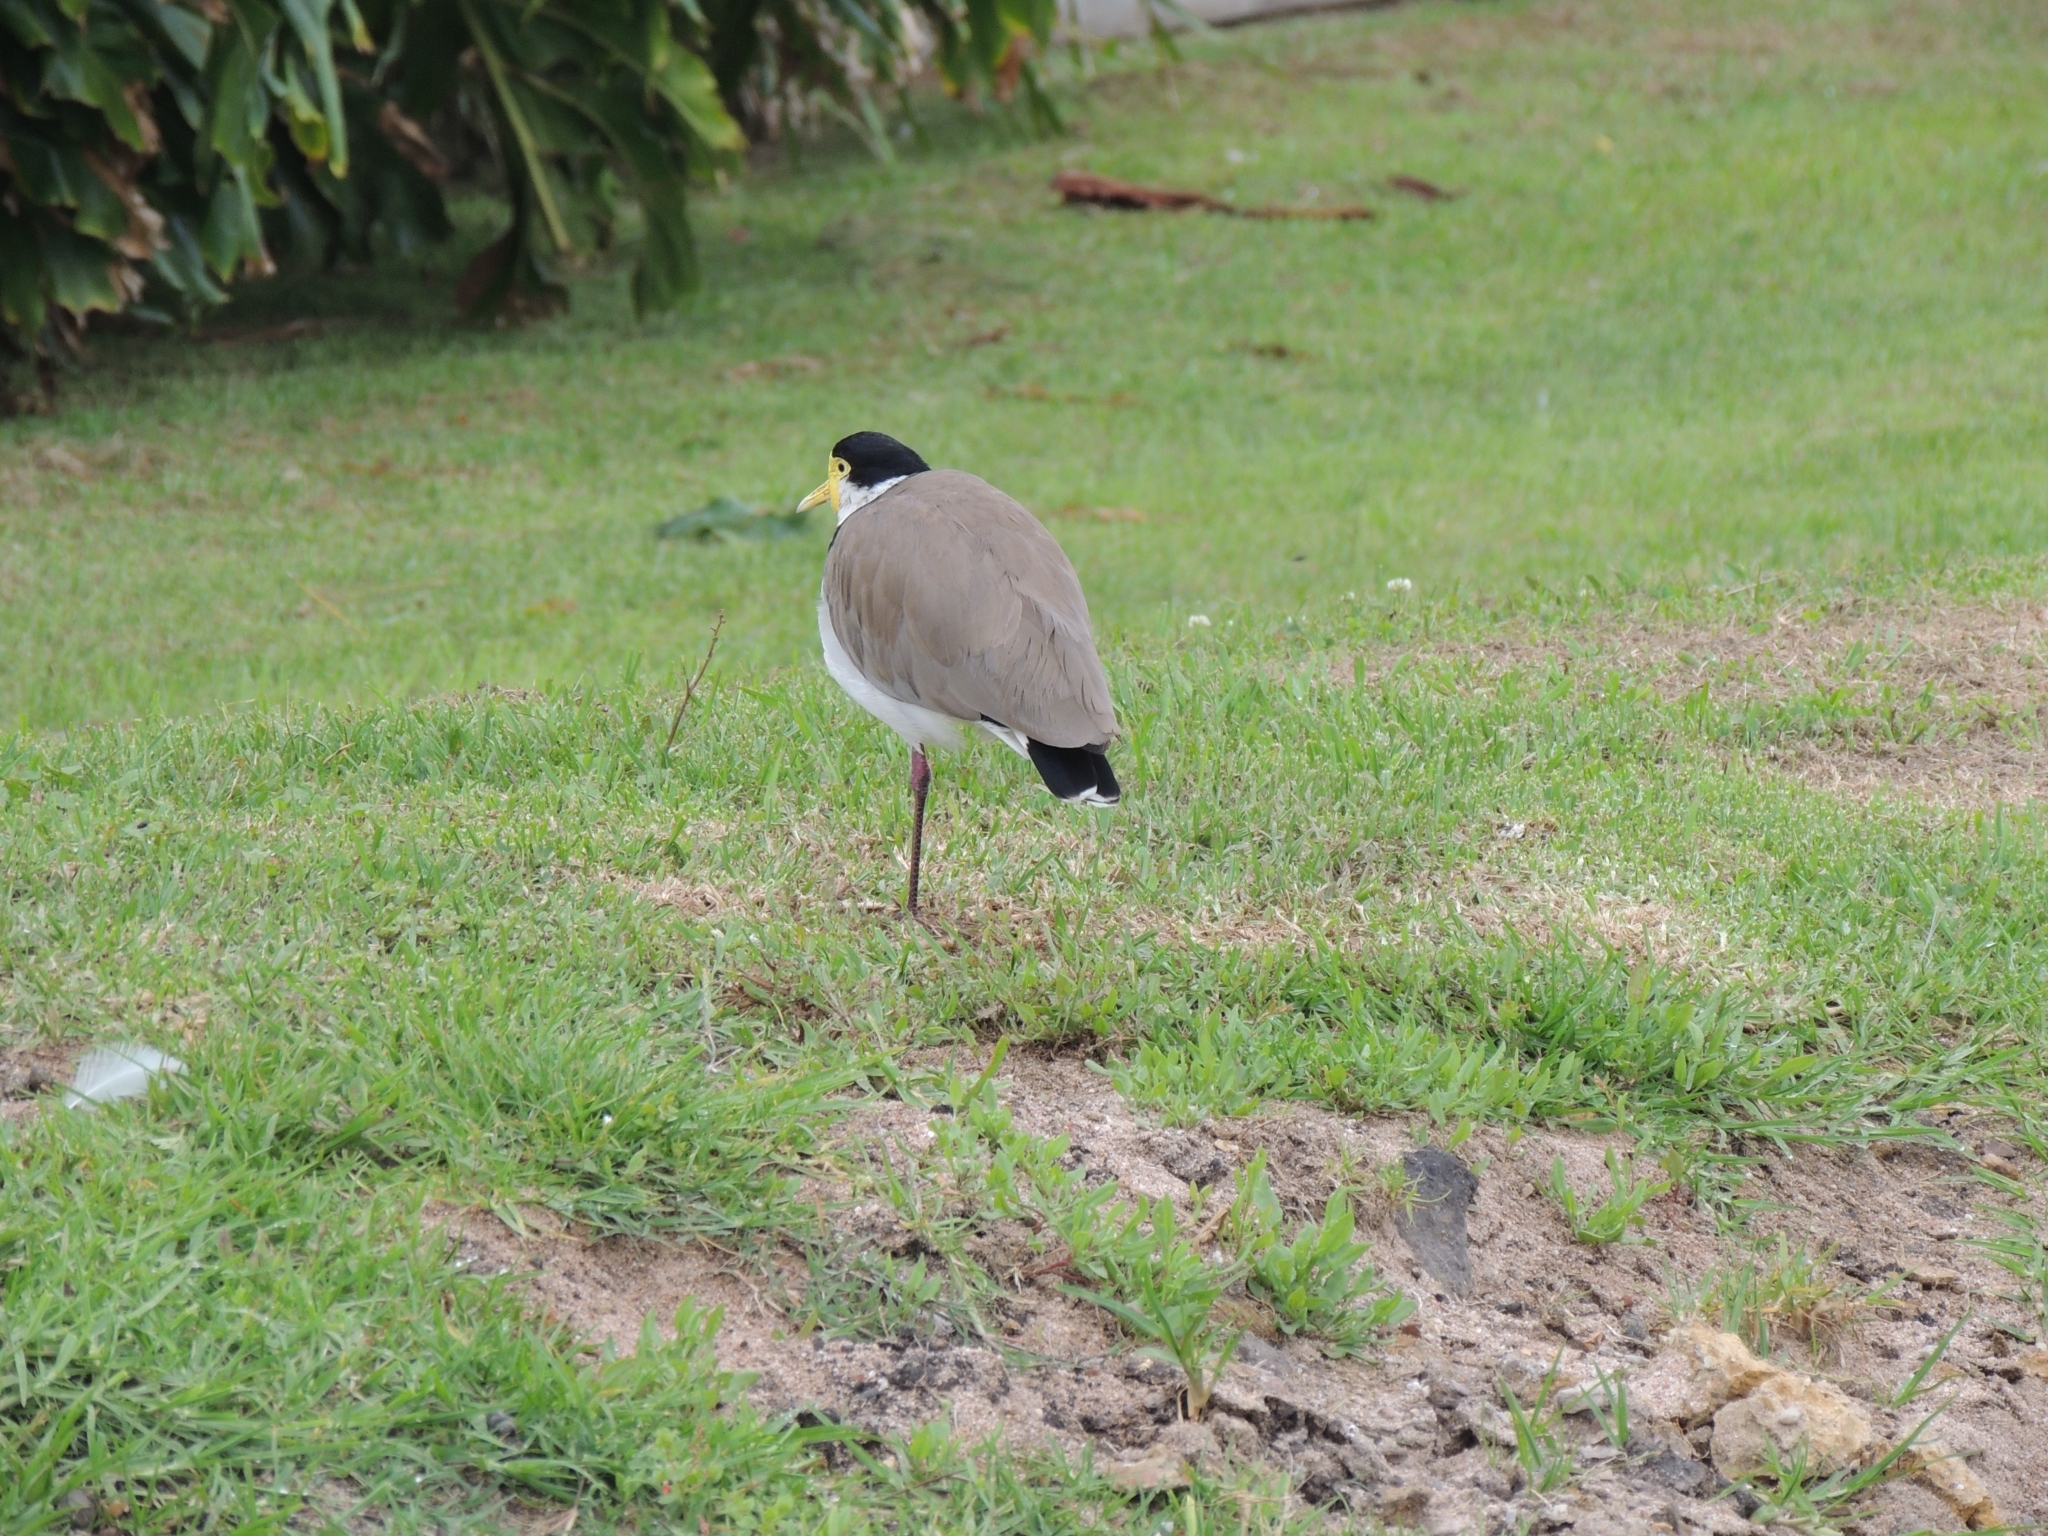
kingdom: Animalia
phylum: Chordata
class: Aves
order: Charadriiformes
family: Charadriidae
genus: Vanellus
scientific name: Vanellus miles
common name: Masked lapwing
